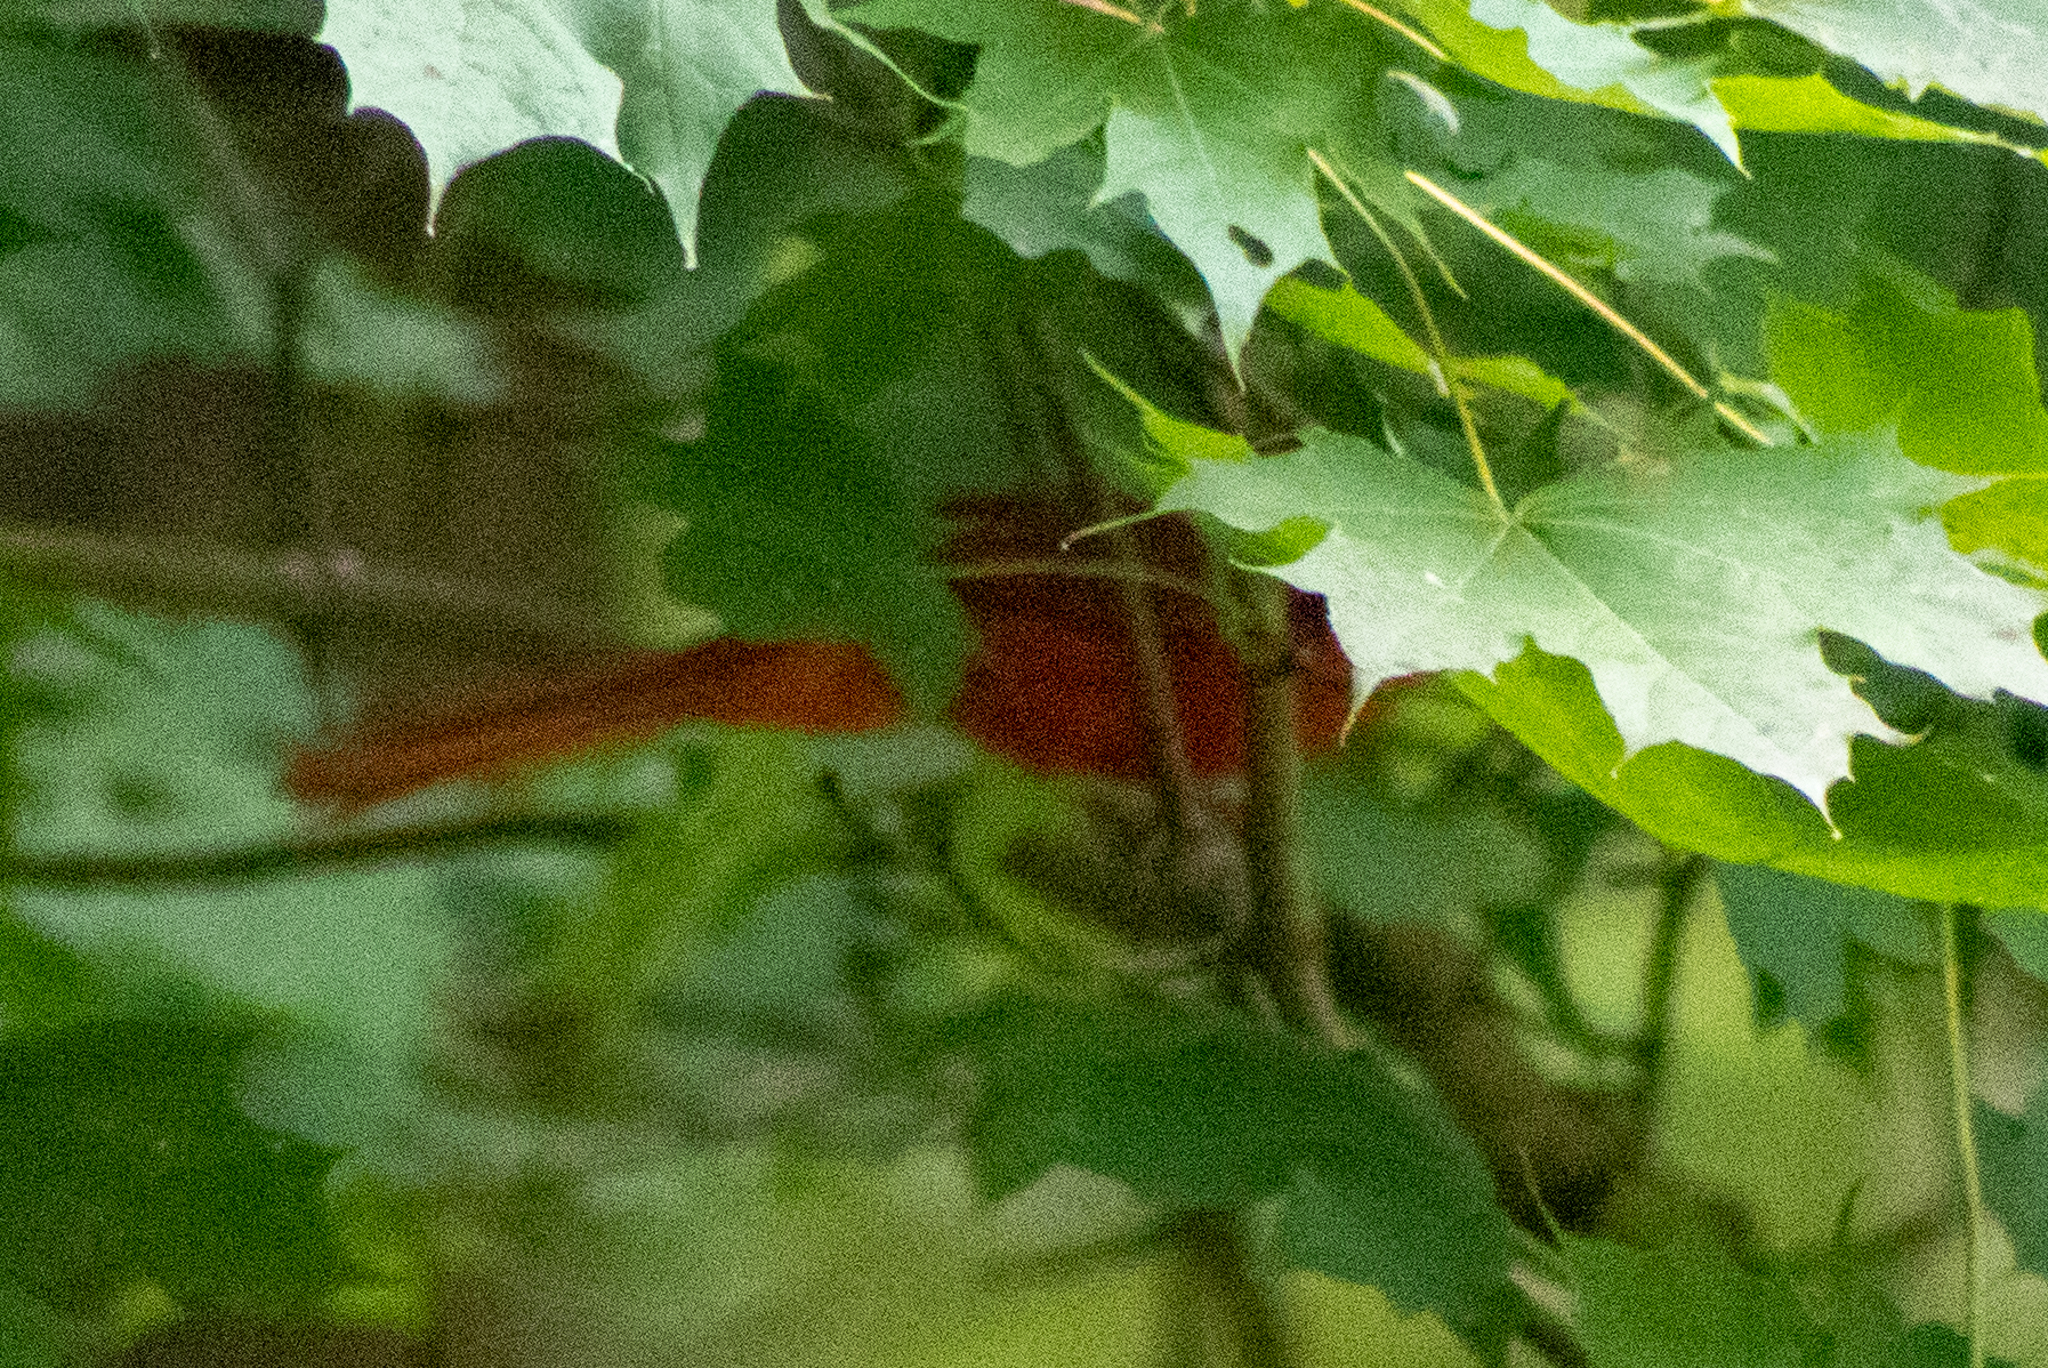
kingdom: Animalia
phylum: Chordata
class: Aves
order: Passeriformes
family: Cardinalidae
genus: Cardinalis
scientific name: Cardinalis cardinalis
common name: Northern cardinal
